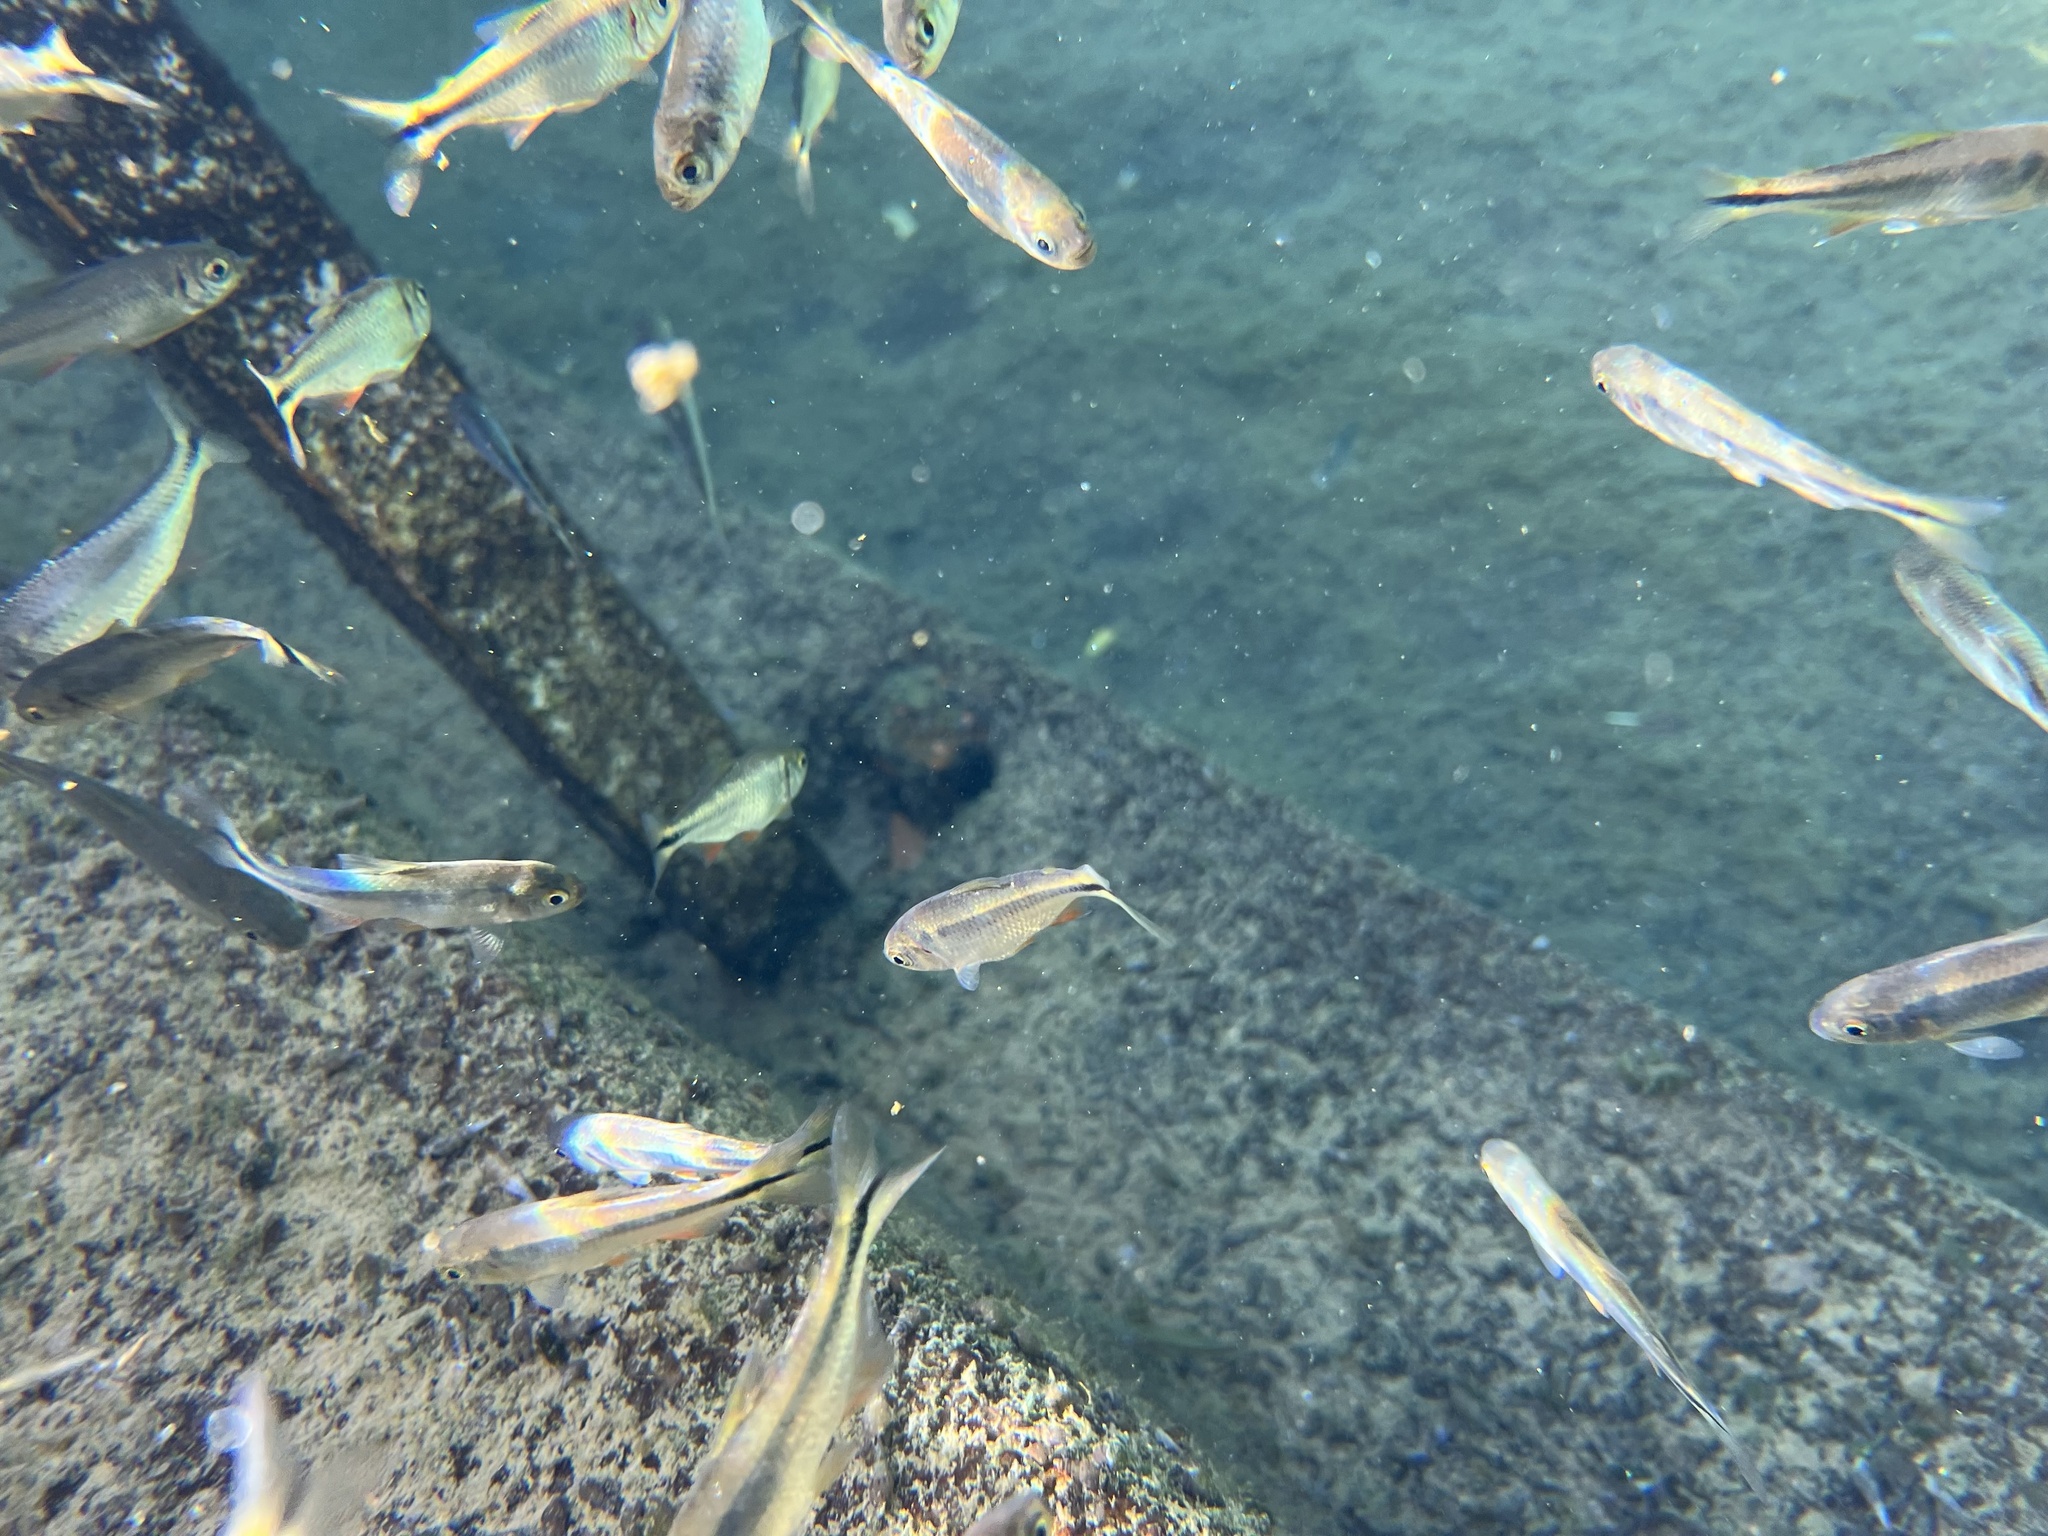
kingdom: Animalia
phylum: Chordata
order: Characiformes
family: Characidae
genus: Astyanax
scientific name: Astyanax mexicanus
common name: Mexican tetra
